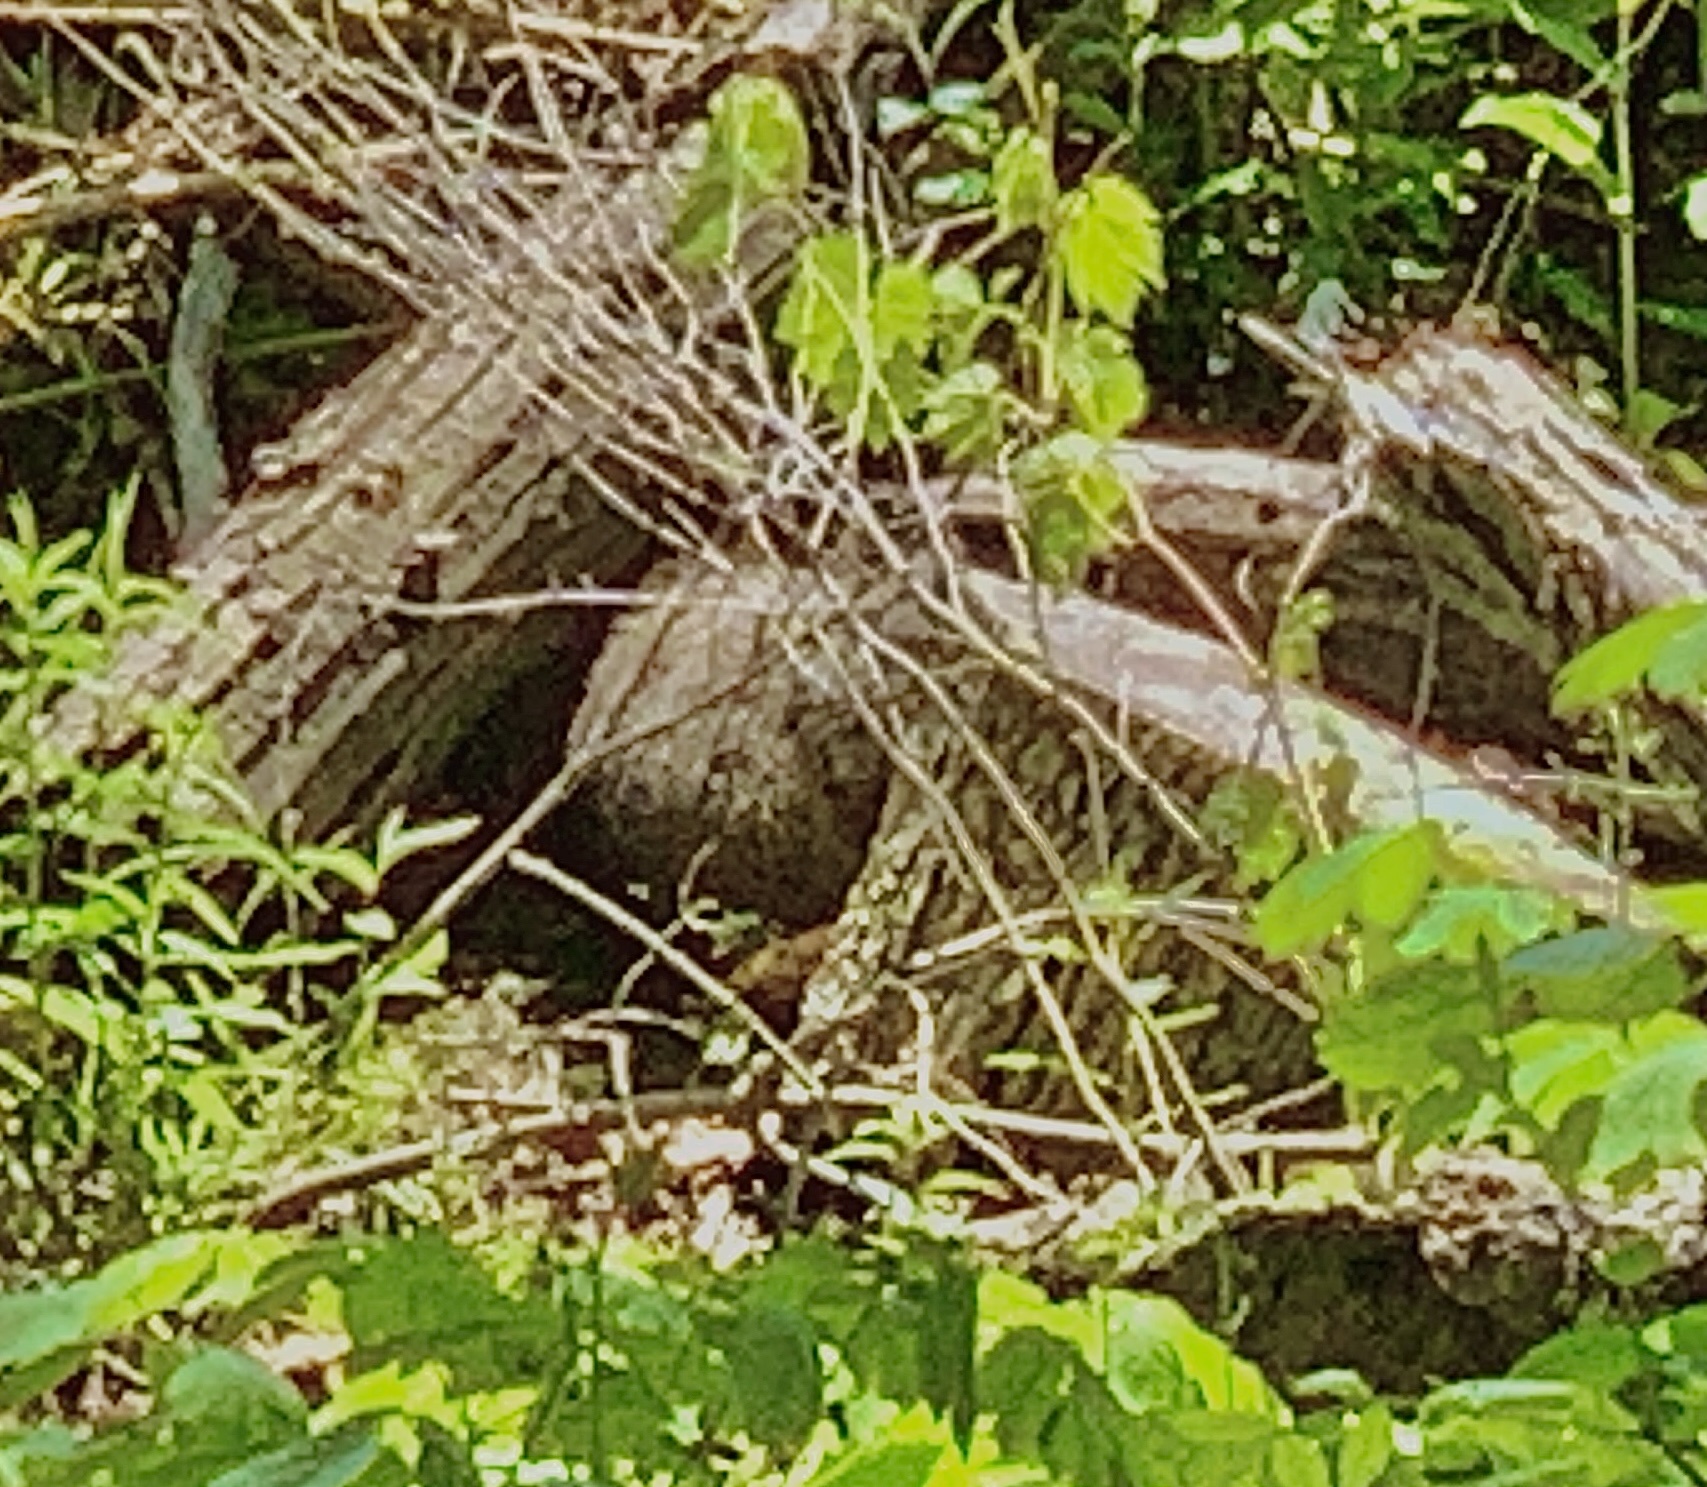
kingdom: Animalia
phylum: Chordata
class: Mammalia
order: Rodentia
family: Sciuridae
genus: Marmota
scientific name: Marmota monax
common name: Groundhog
